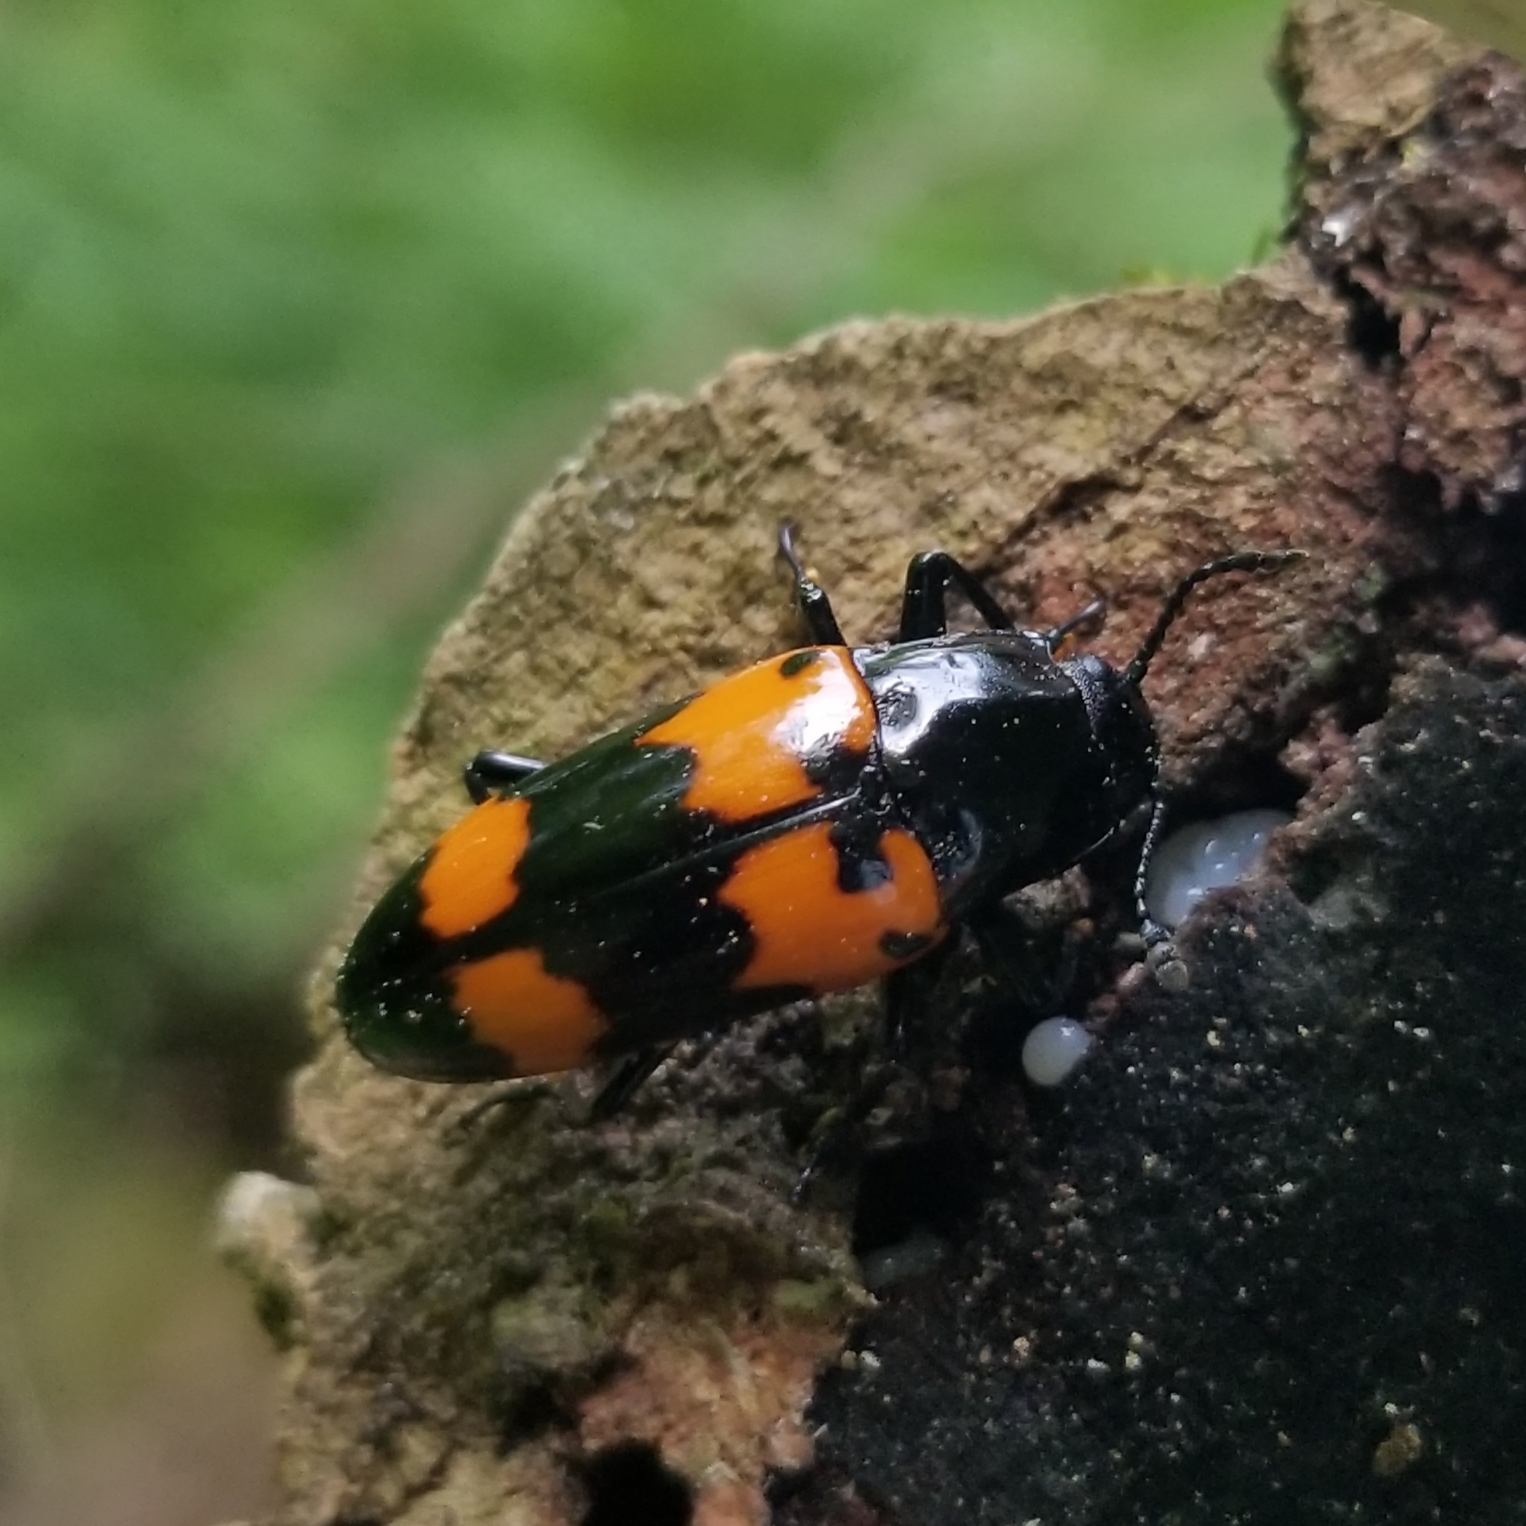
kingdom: Animalia
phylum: Arthropoda
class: Insecta
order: Coleoptera
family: Erotylidae
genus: Megalodacne
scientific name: Megalodacne heros
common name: Pleasing fungus beetle
